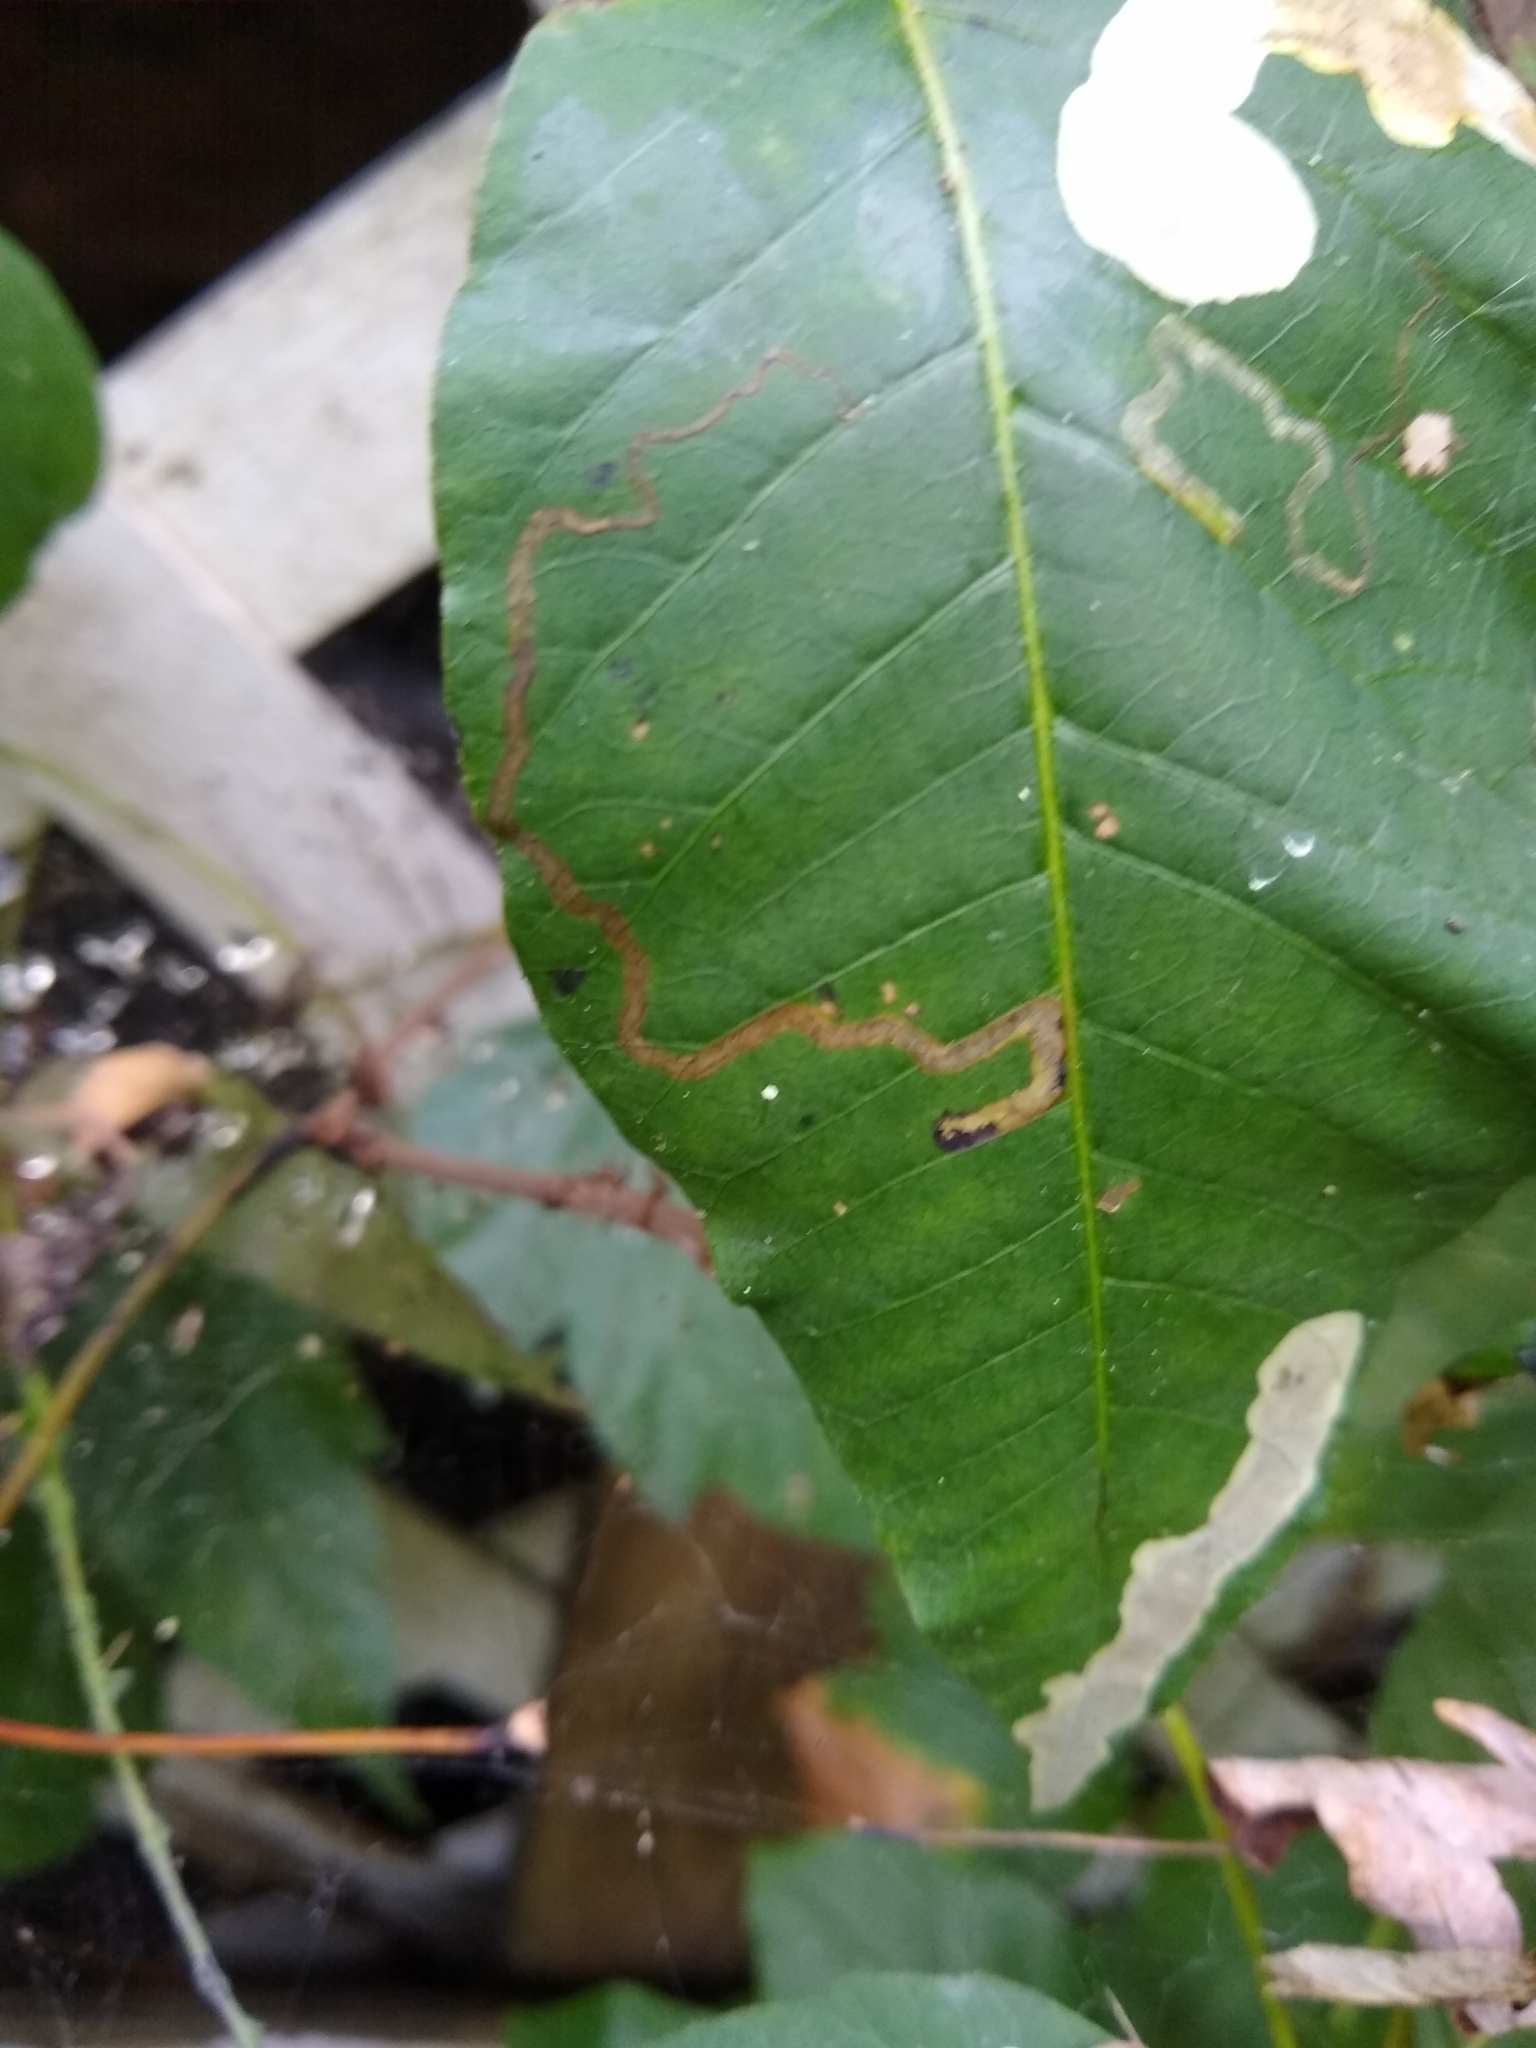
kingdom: Animalia
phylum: Arthropoda
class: Insecta
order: Lepidoptera
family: Nepticulidae
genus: Stigmella
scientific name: Stigmella rhoifoliella
